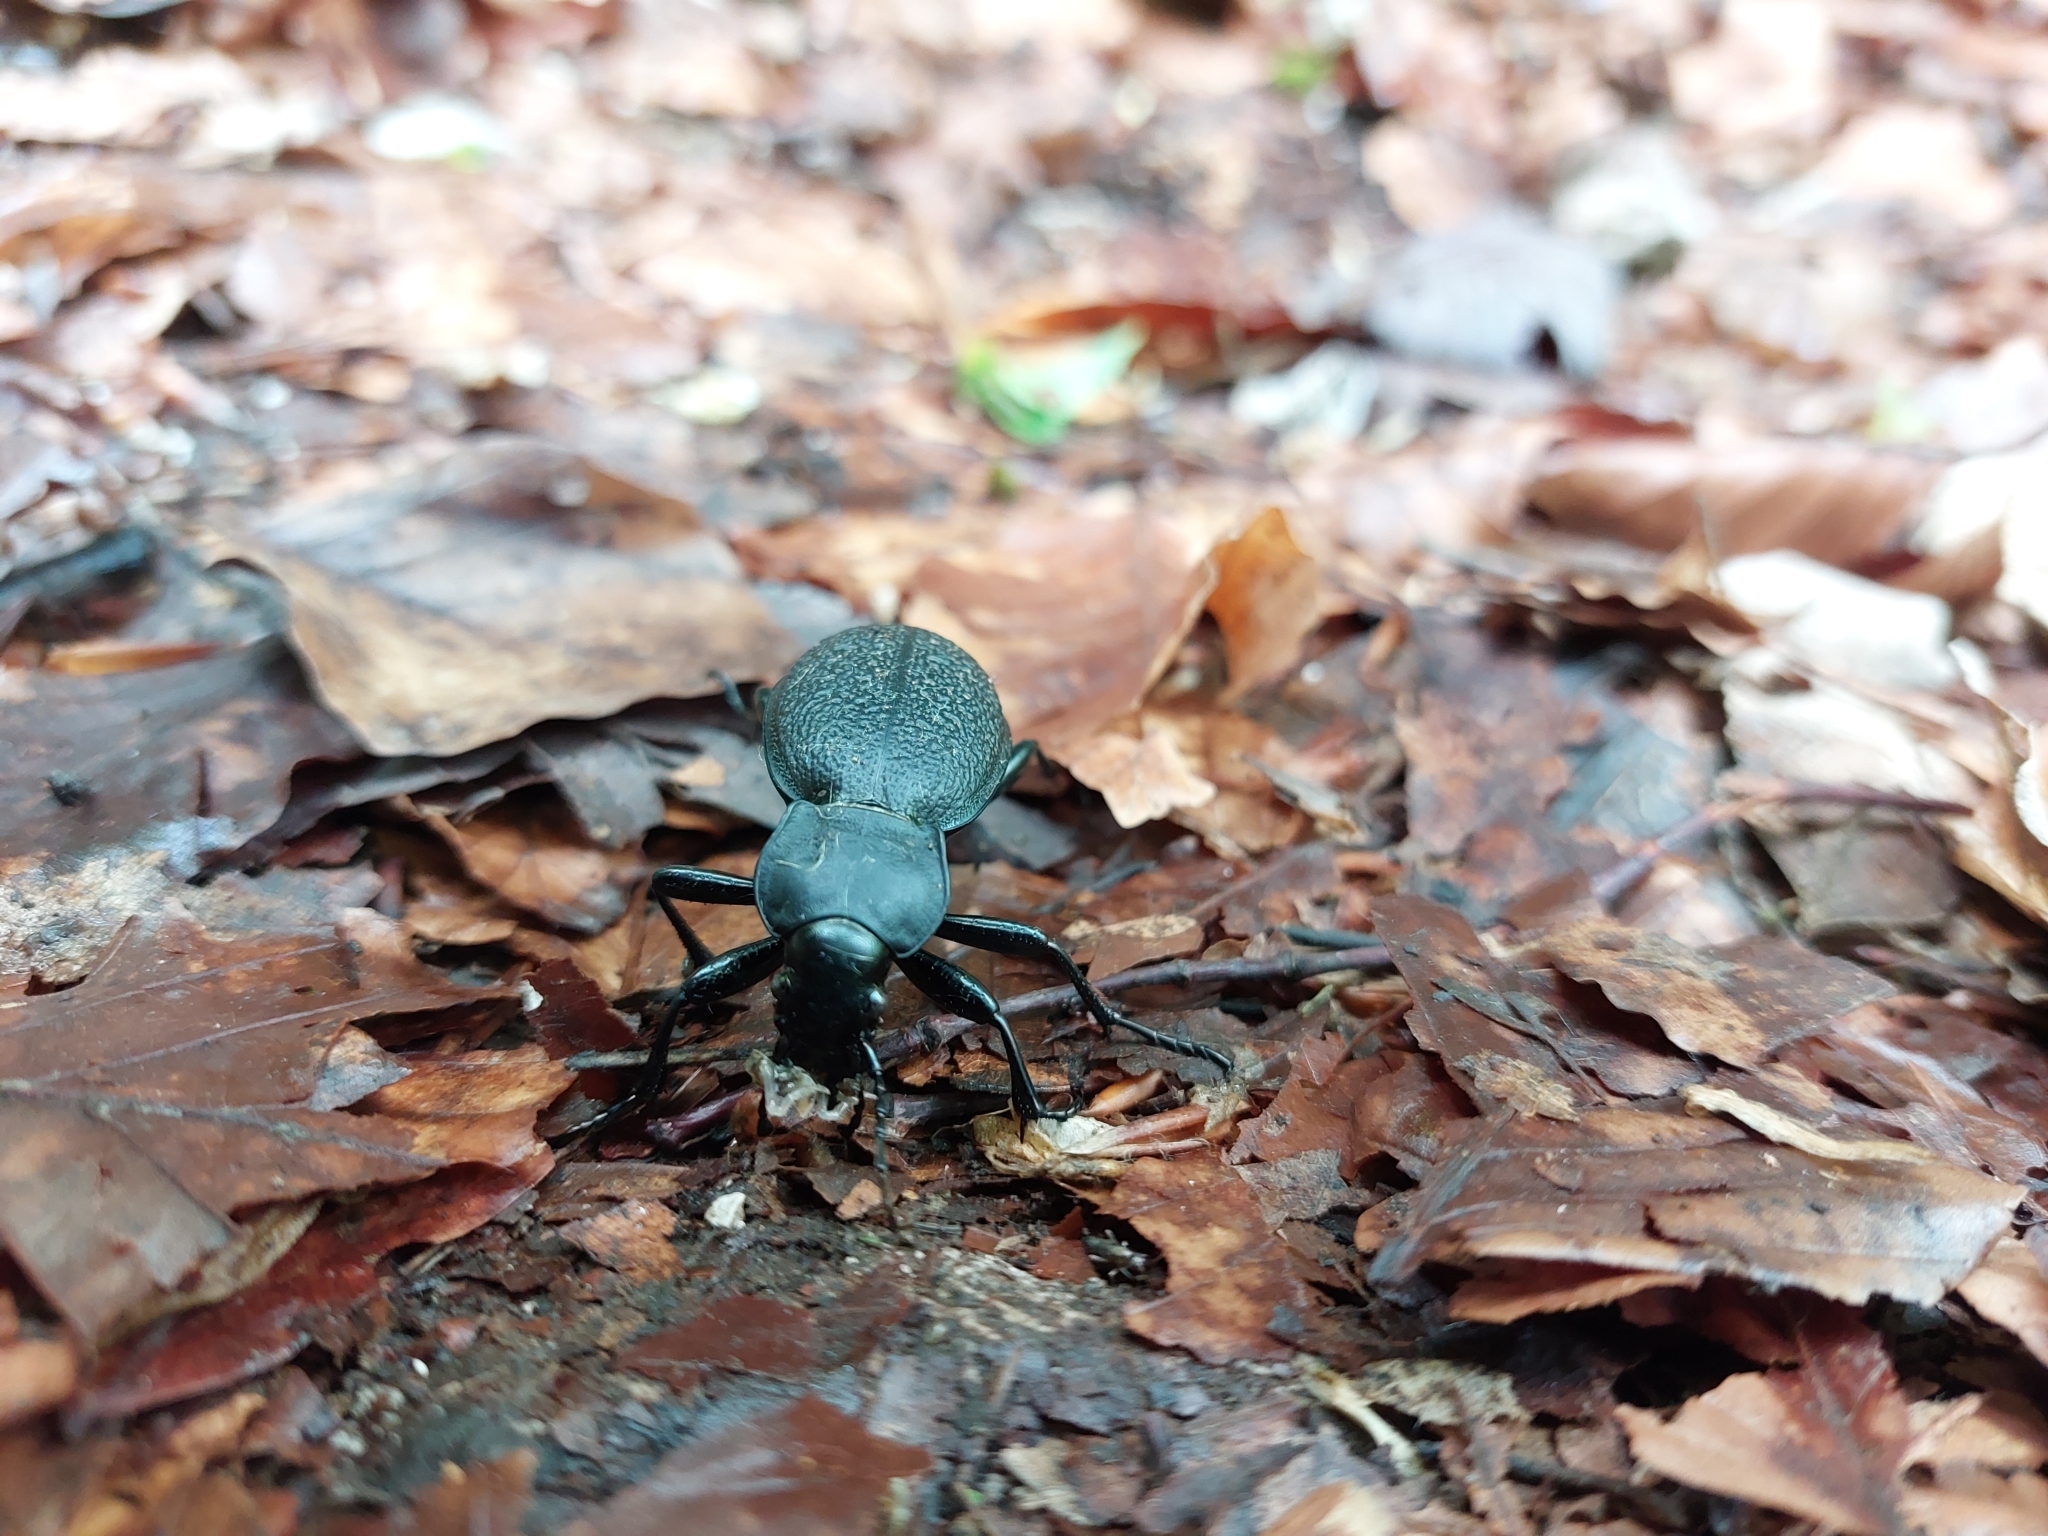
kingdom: Animalia
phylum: Arthropoda
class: Insecta
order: Coleoptera
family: Carabidae
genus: Carabus
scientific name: Carabus coriaceus
